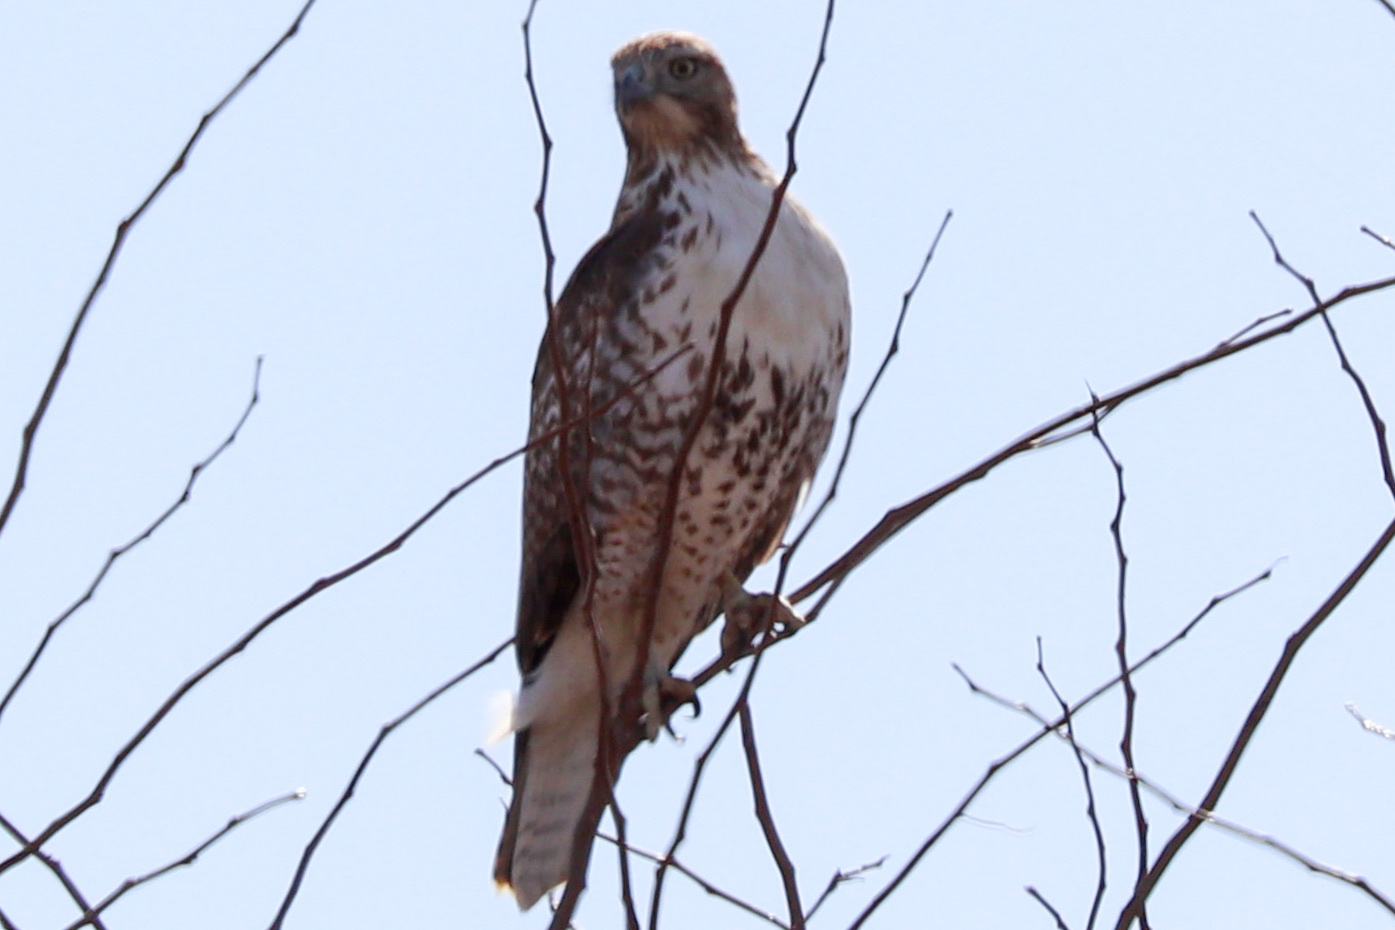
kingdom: Animalia
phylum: Chordata
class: Aves
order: Accipitriformes
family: Accipitridae
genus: Buteo
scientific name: Buteo jamaicensis
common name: Red-tailed hawk
